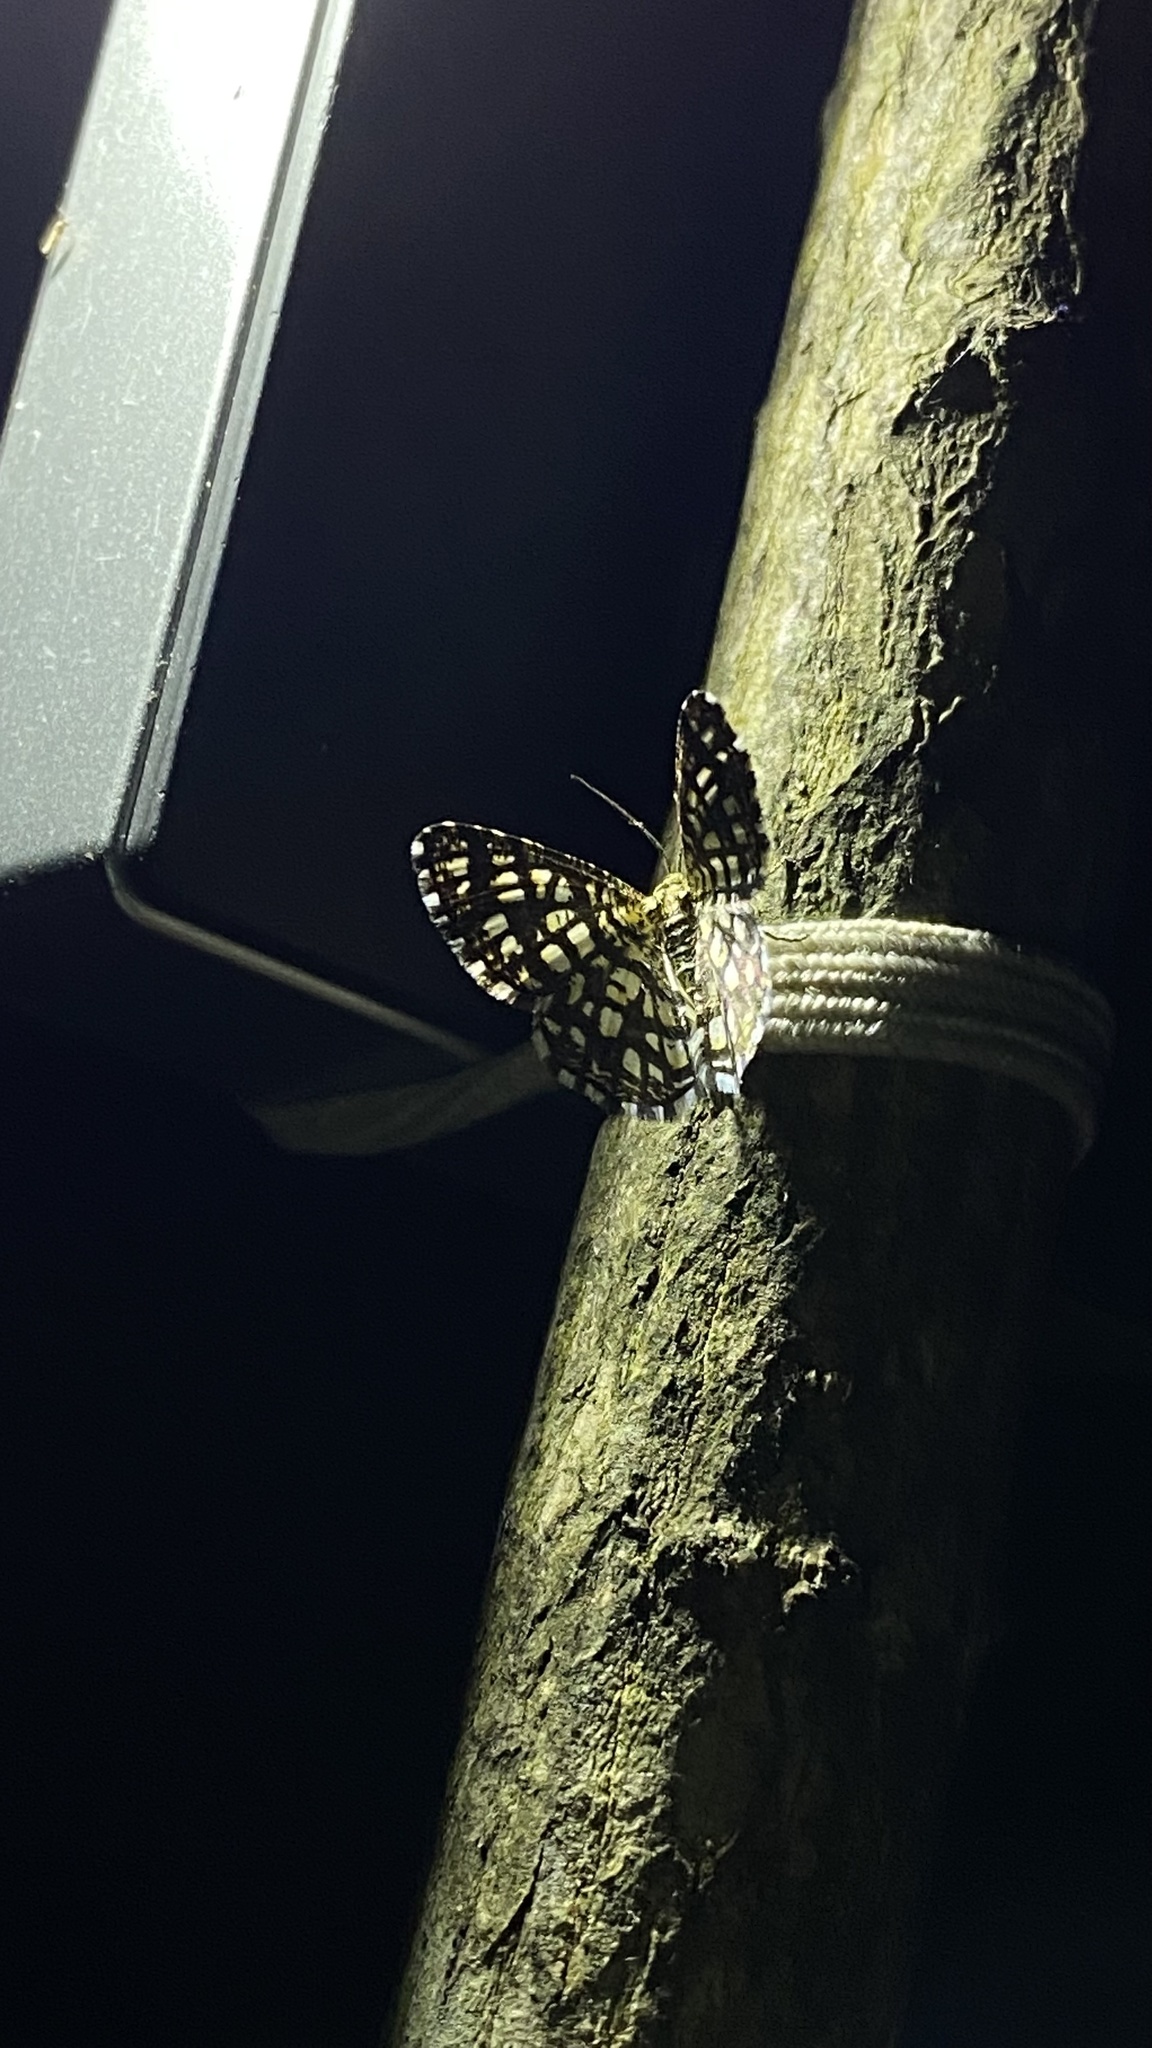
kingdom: Animalia
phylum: Arthropoda
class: Insecta
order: Lepidoptera
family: Geometridae
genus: Chiasmia
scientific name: Chiasmia clathrata
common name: Latticed heath
